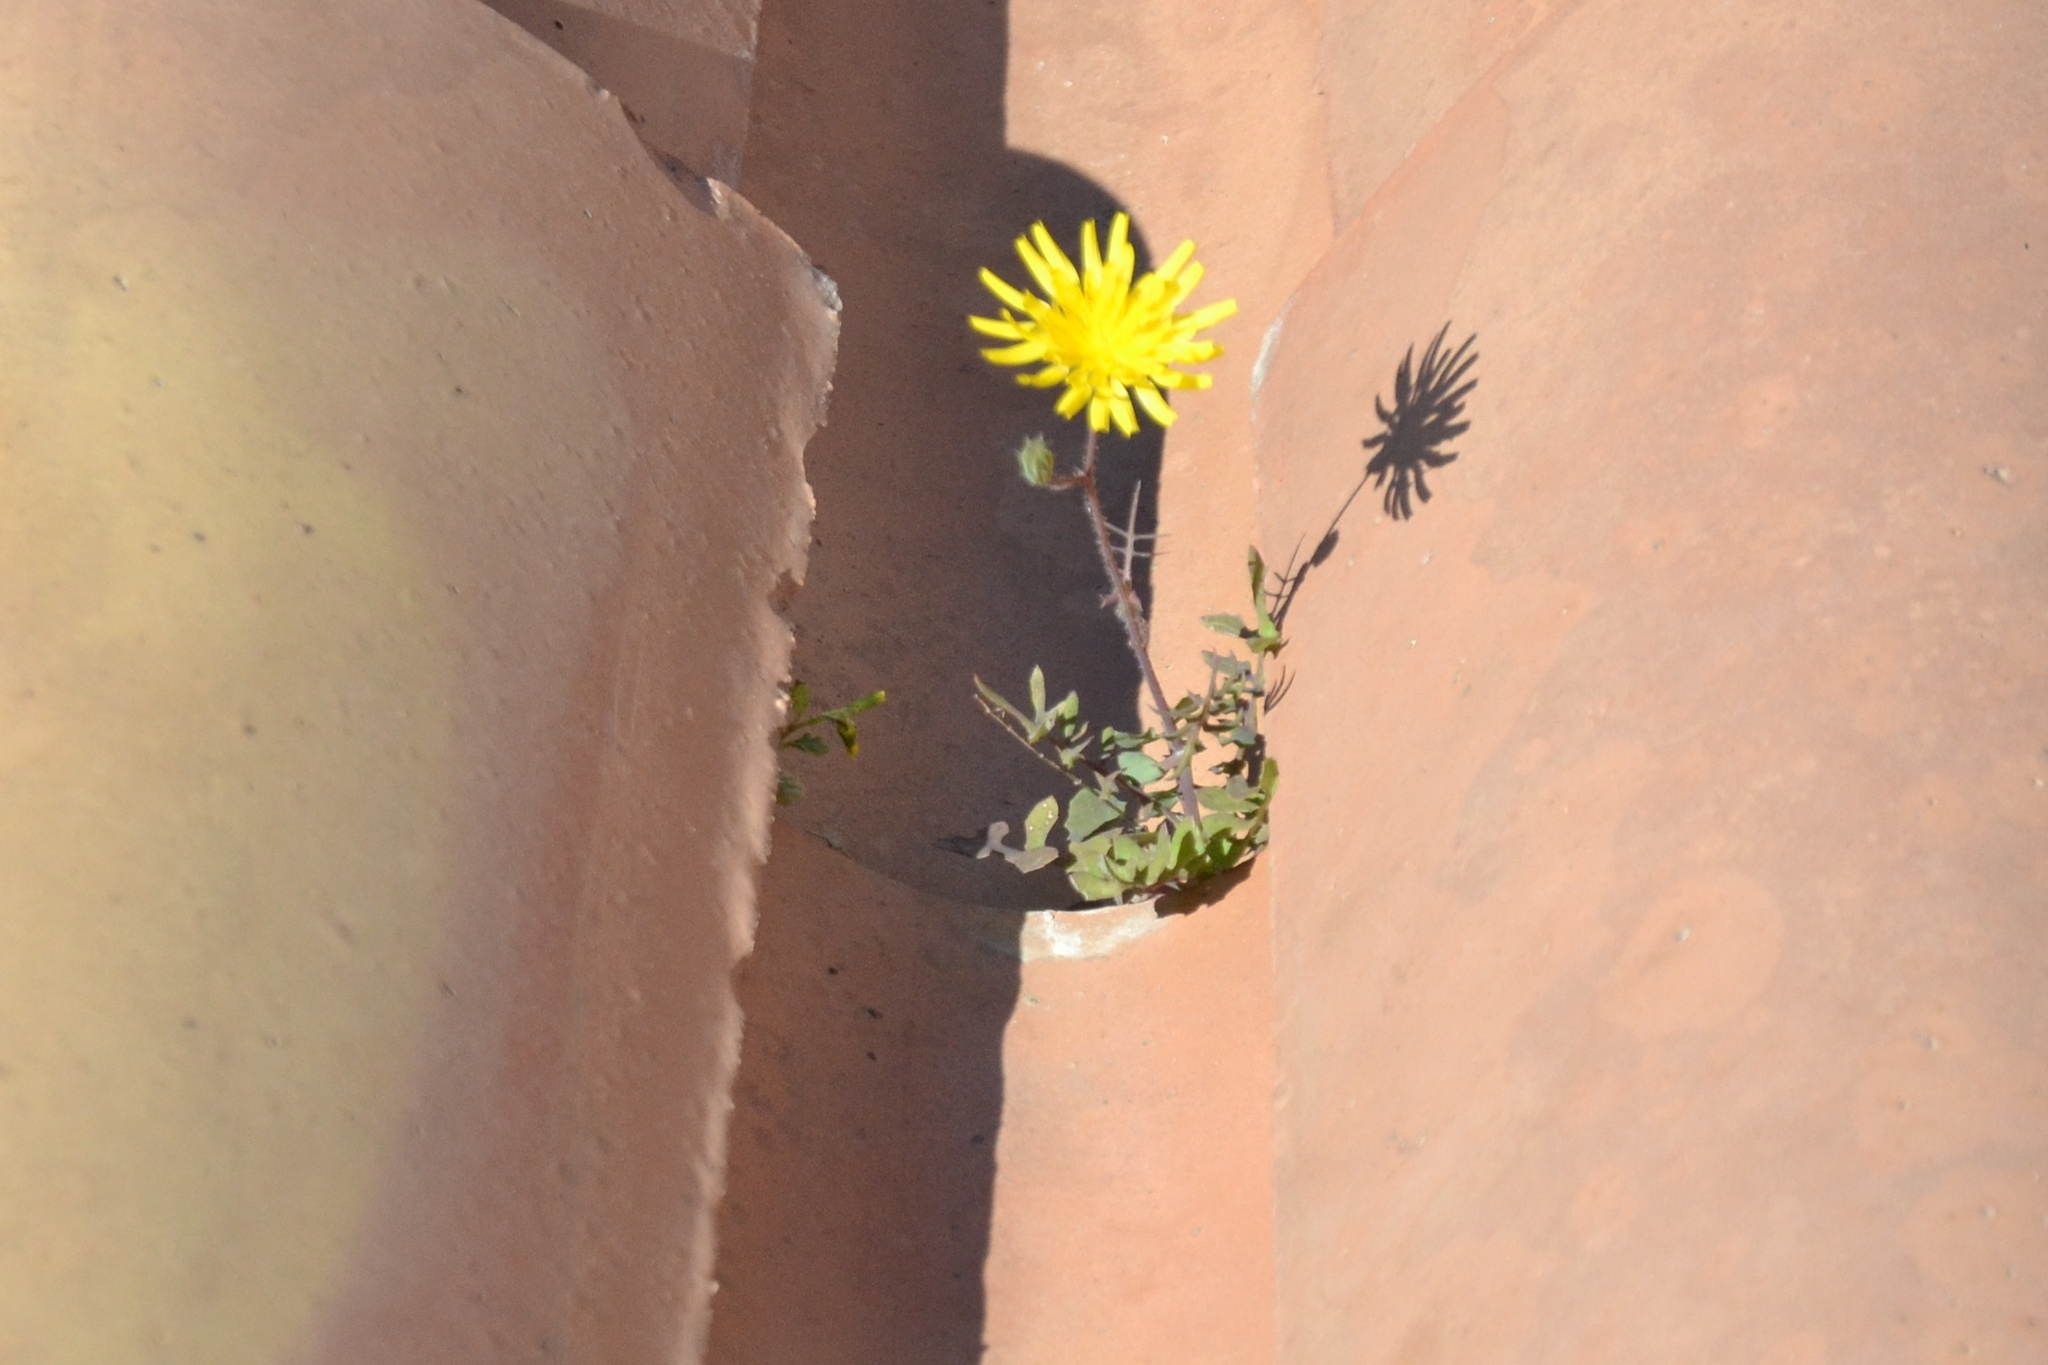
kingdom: Plantae
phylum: Tracheophyta
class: Magnoliopsida
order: Asterales
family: Asteraceae
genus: Sonchus
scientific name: Sonchus tenerrimus
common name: Clammy sowthistle
